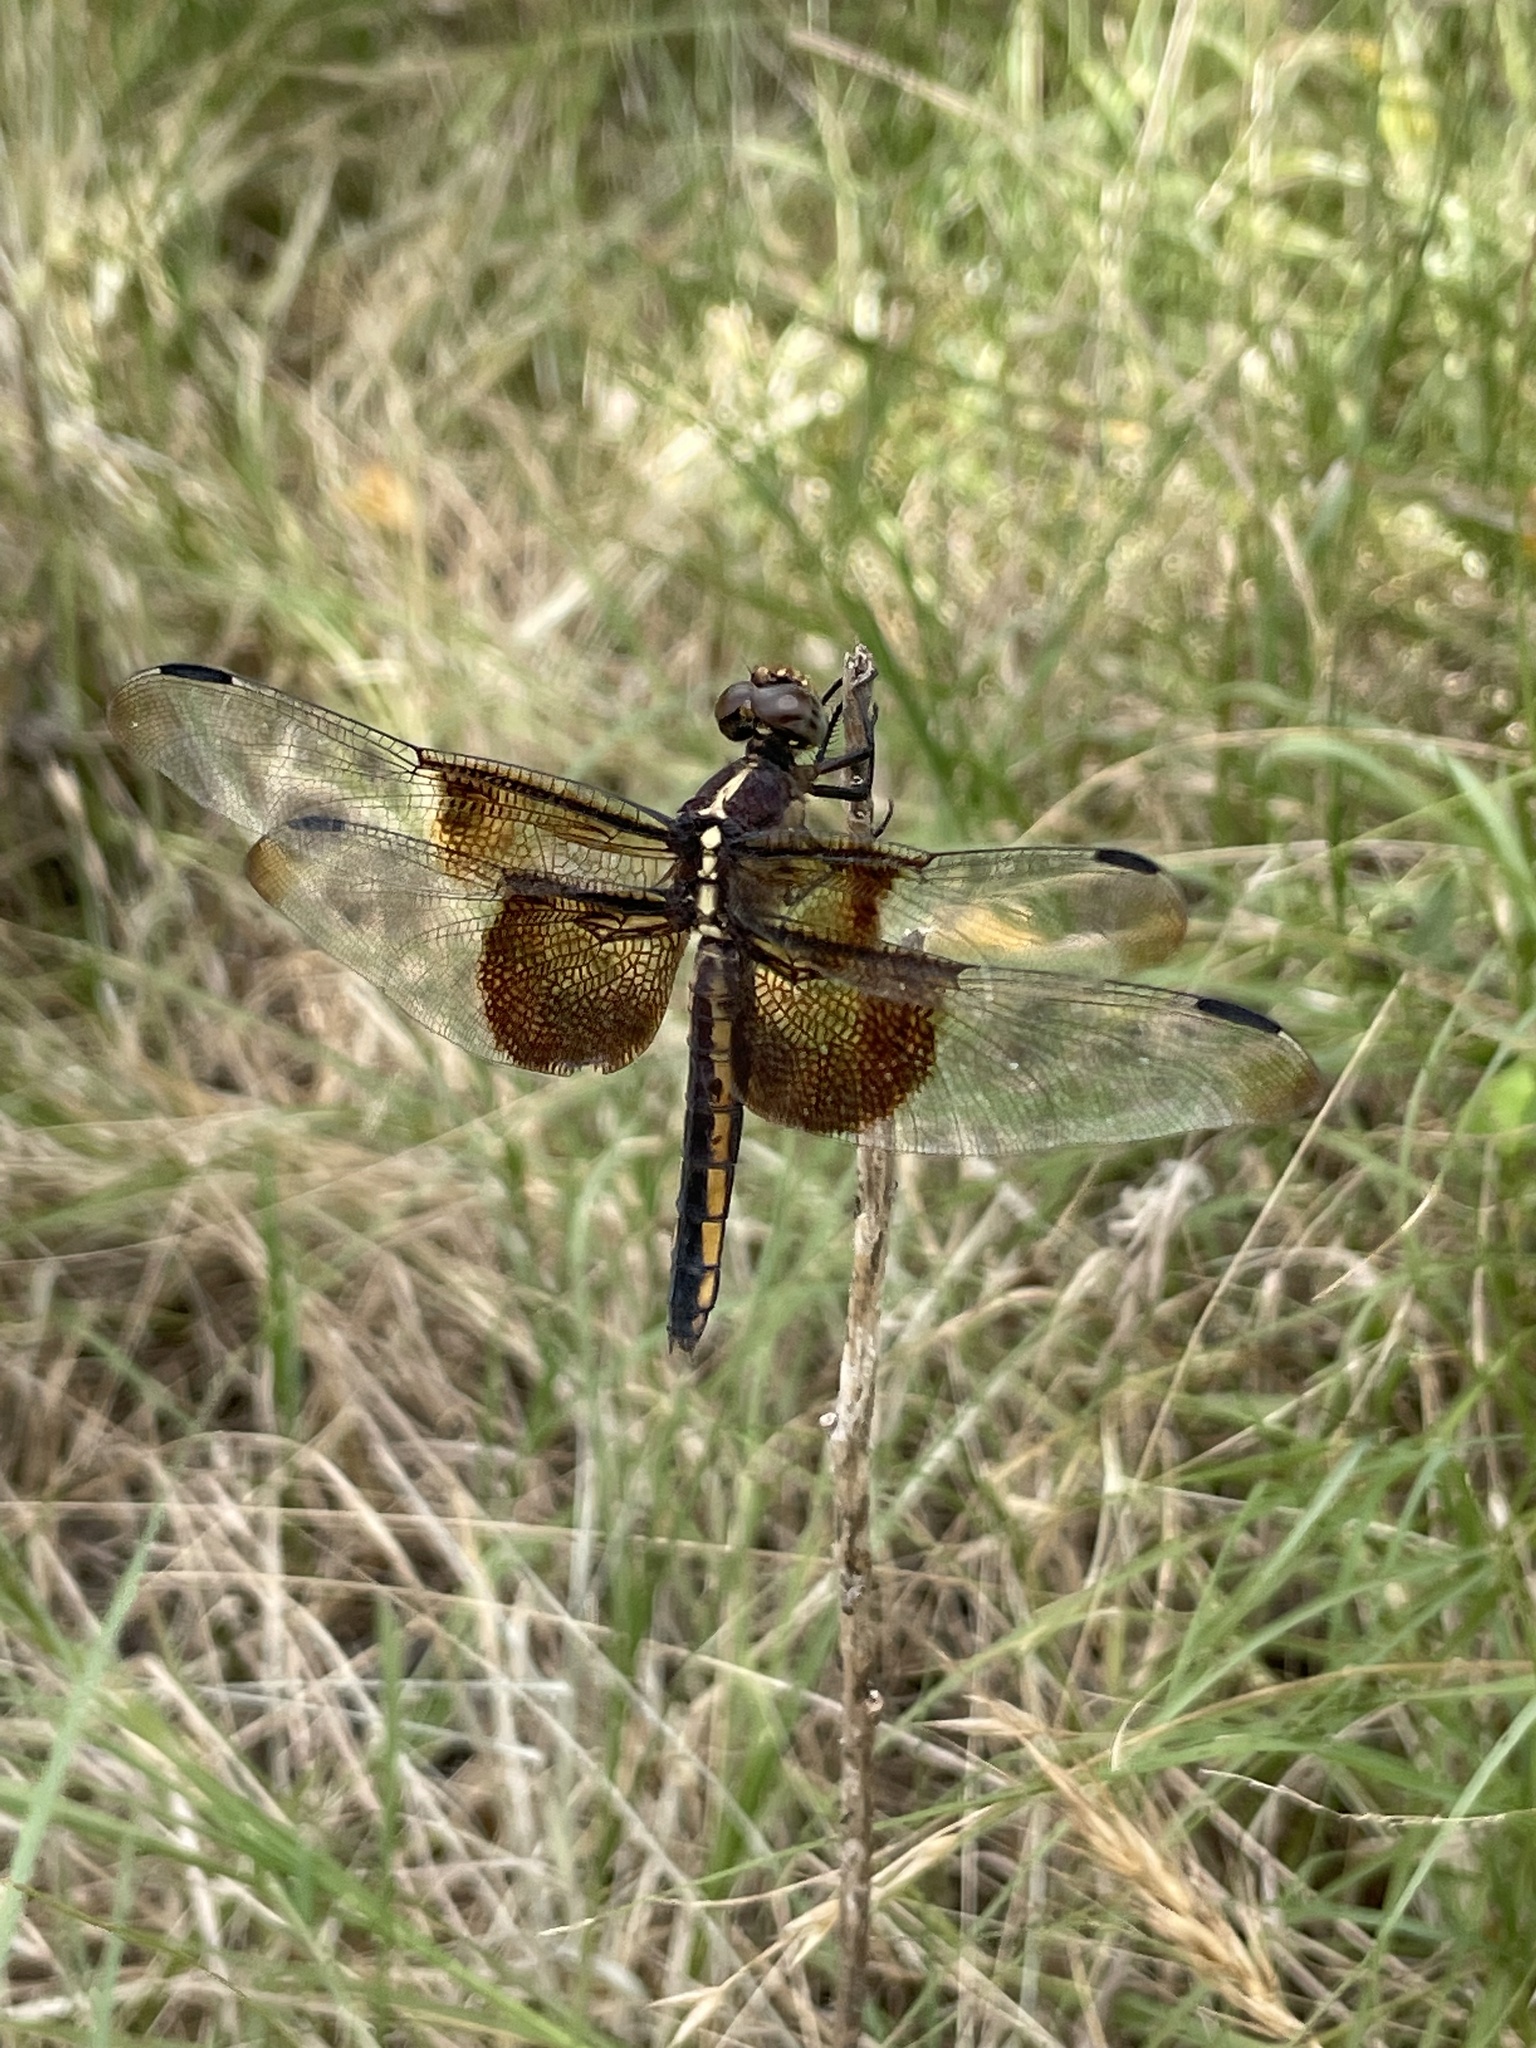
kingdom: Animalia
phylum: Arthropoda
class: Insecta
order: Odonata
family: Libellulidae
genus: Libellula
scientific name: Libellula luctuosa
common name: Widow skimmer
